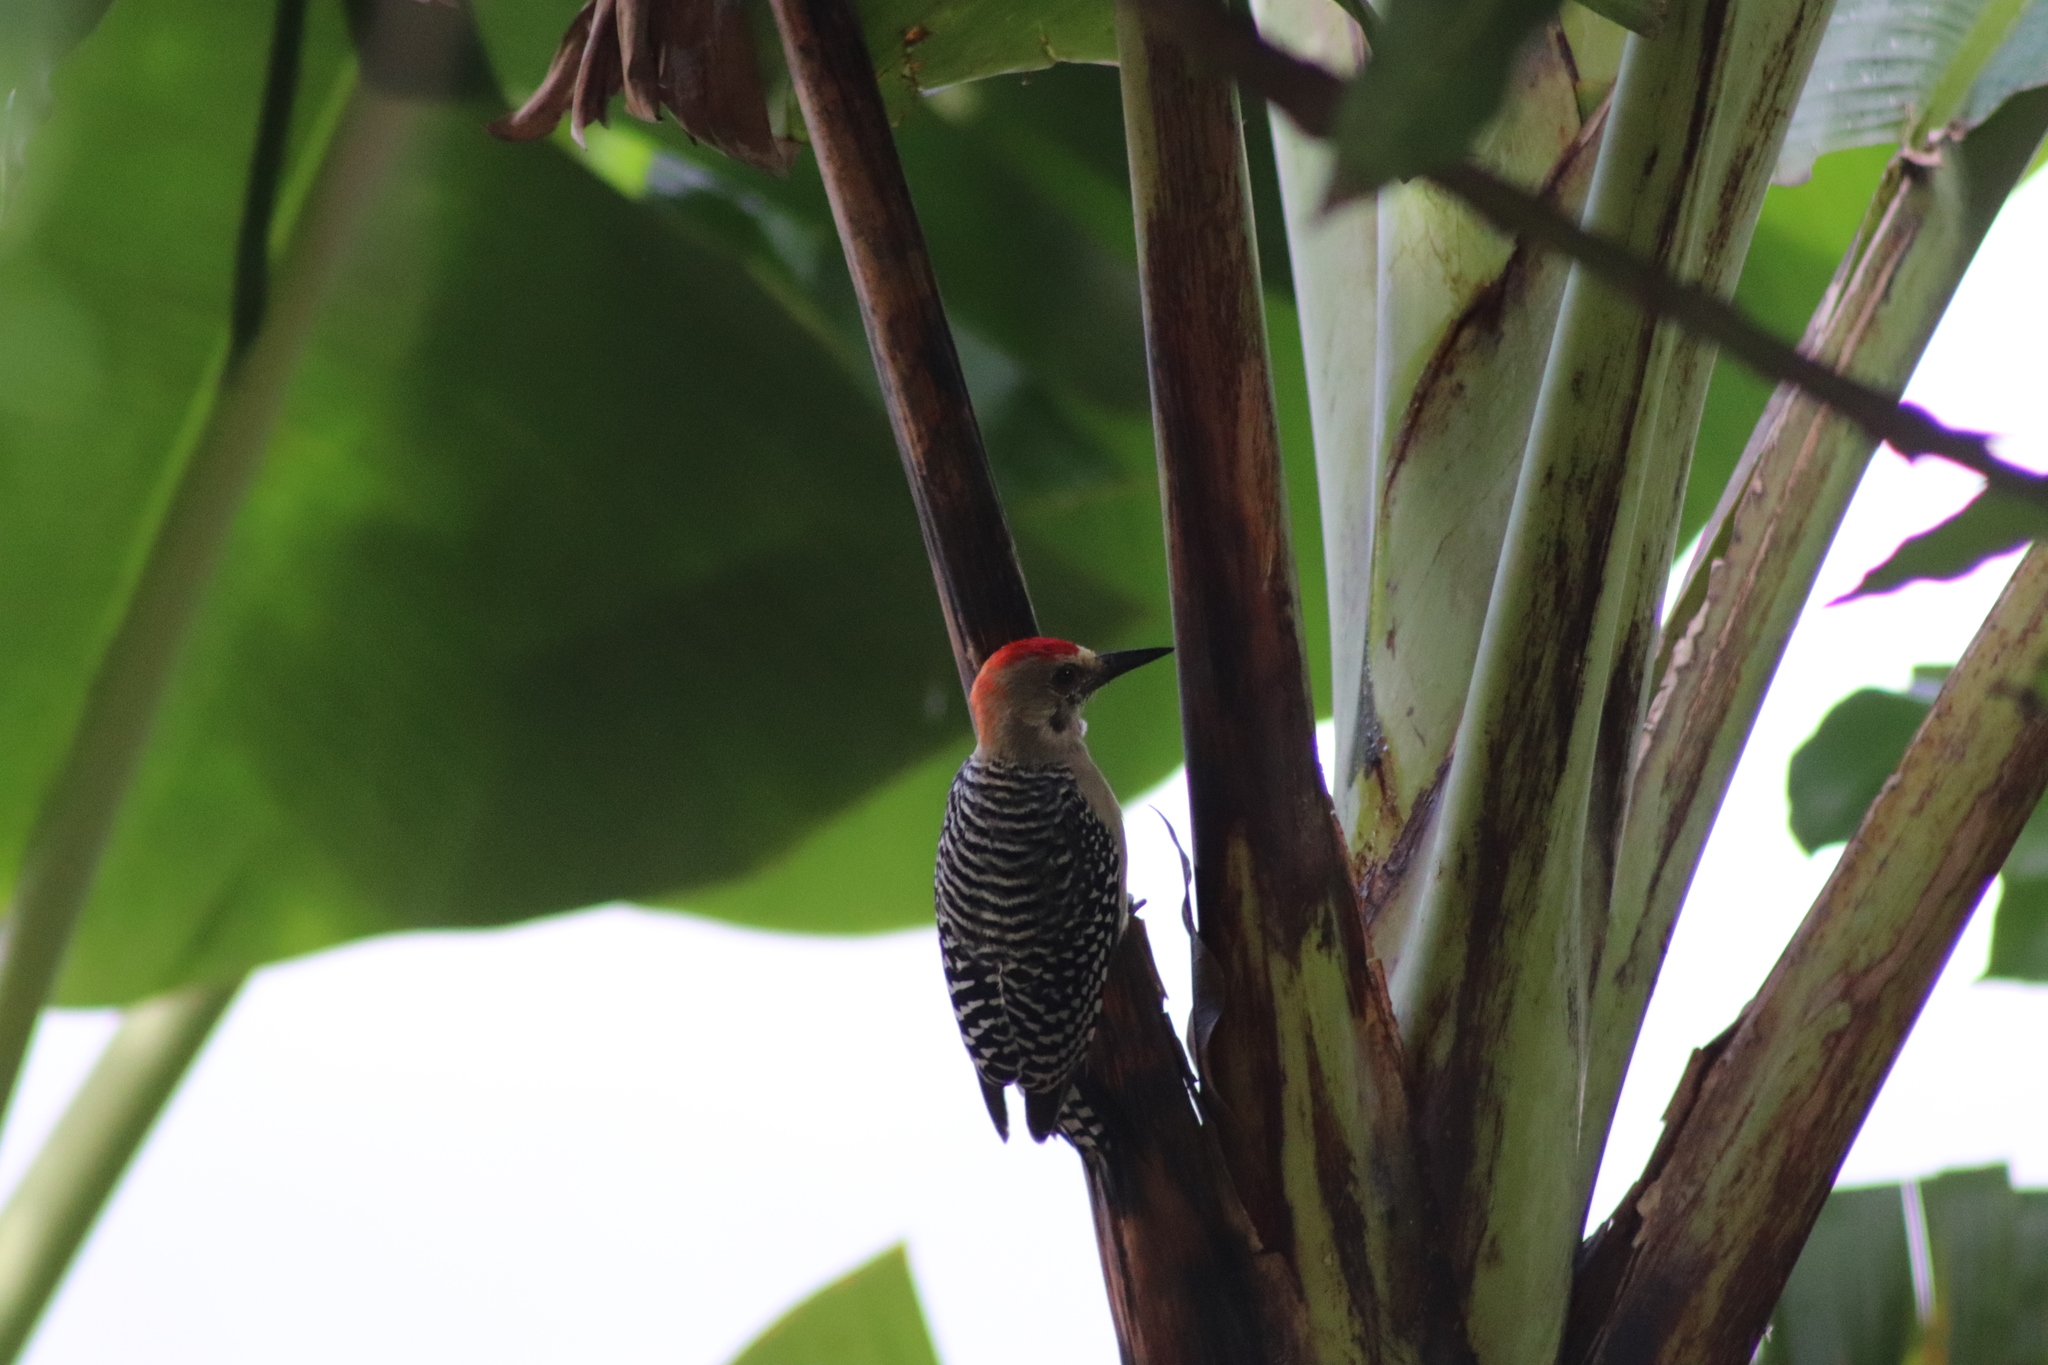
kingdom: Animalia
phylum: Chordata
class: Aves
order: Piciformes
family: Picidae
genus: Melanerpes
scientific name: Melanerpes rubricapillus
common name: Red-crowned woodpecker
